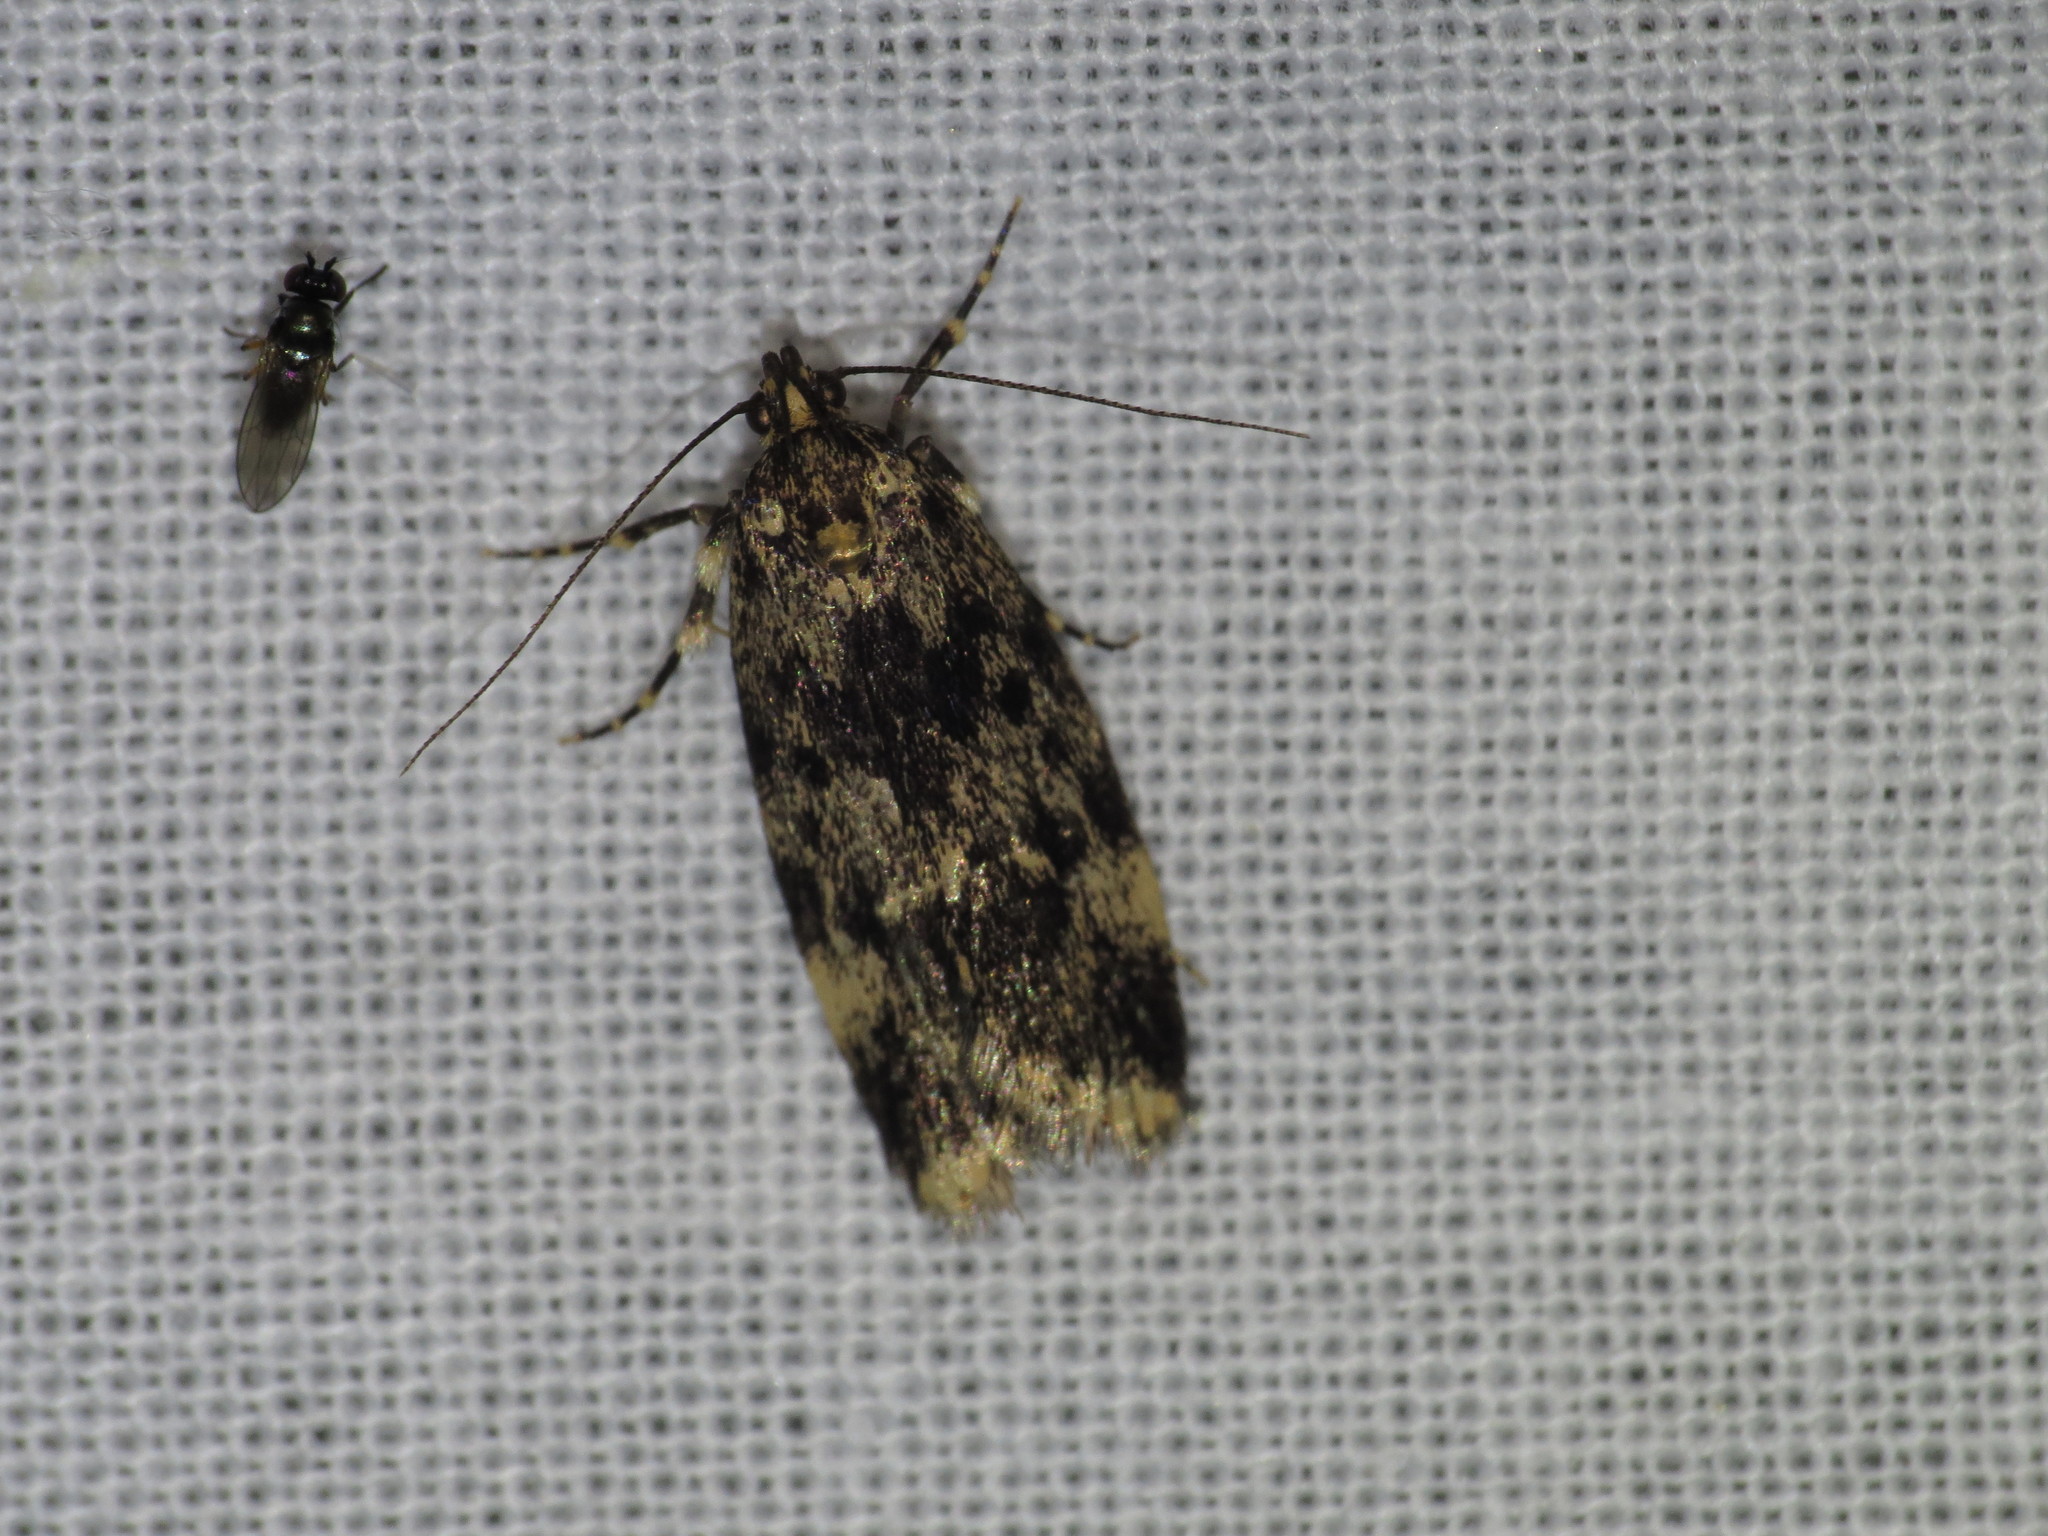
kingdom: Animalia
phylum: Arthropoda
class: Insecta
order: Lepidoptera
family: Oecophoridae
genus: Barea
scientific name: Barea codrella
